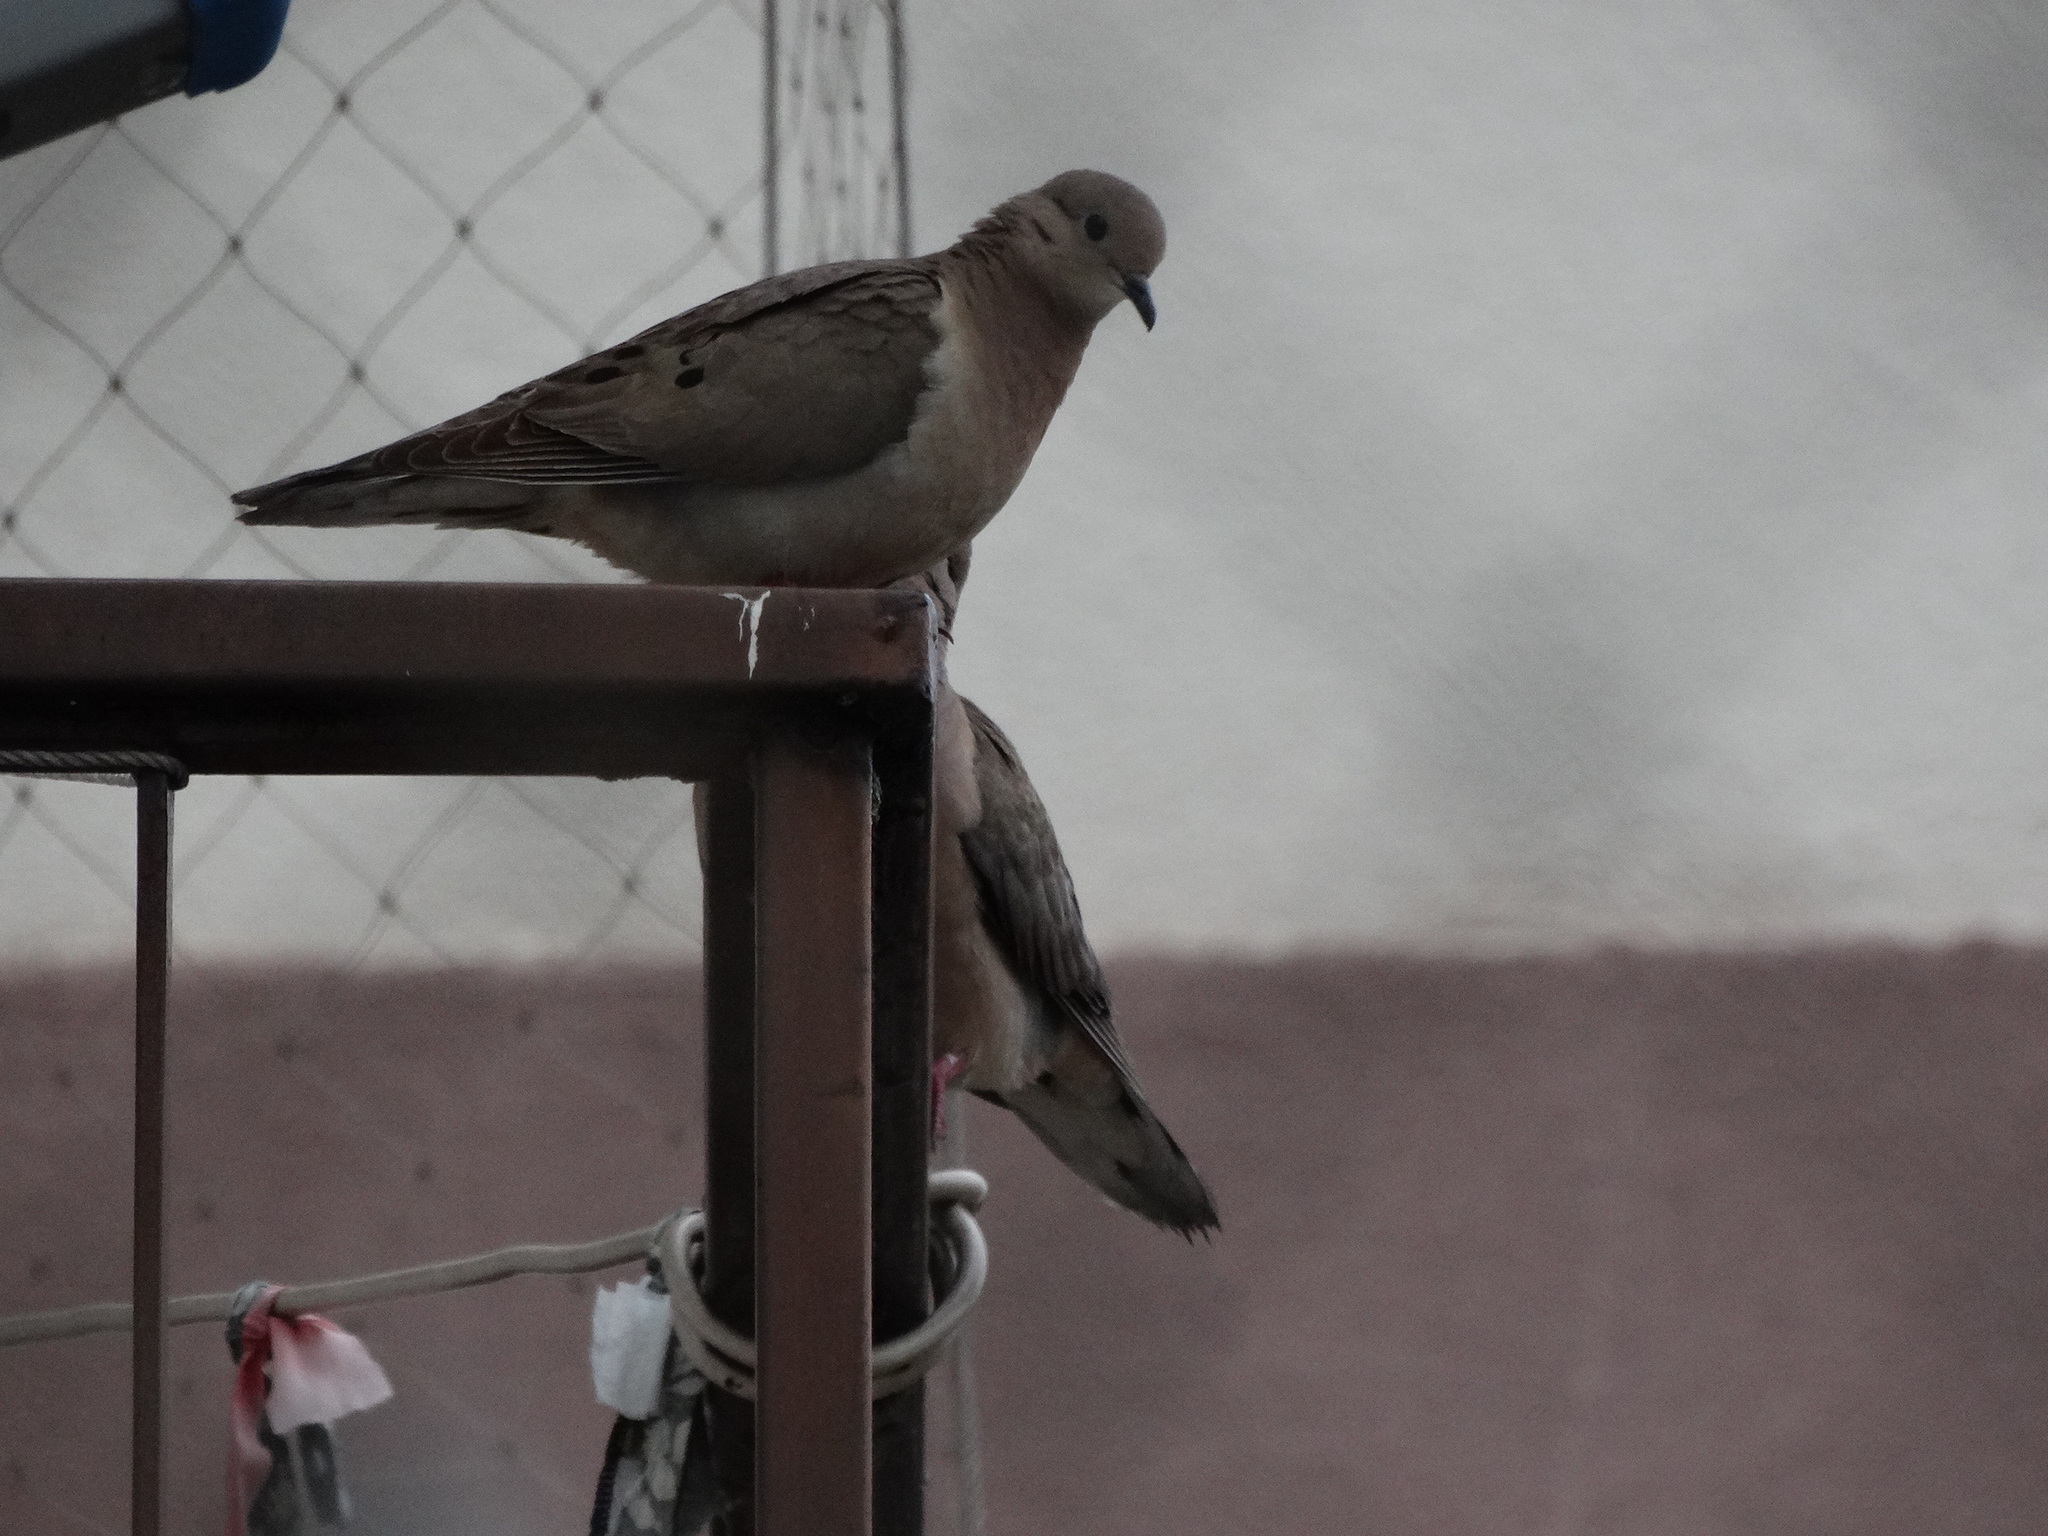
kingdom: Animalia
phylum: Chordata
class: Aves
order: Columbiformes
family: Columbidae
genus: Zenaida
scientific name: Zenaida auriculata
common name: Eared dove
